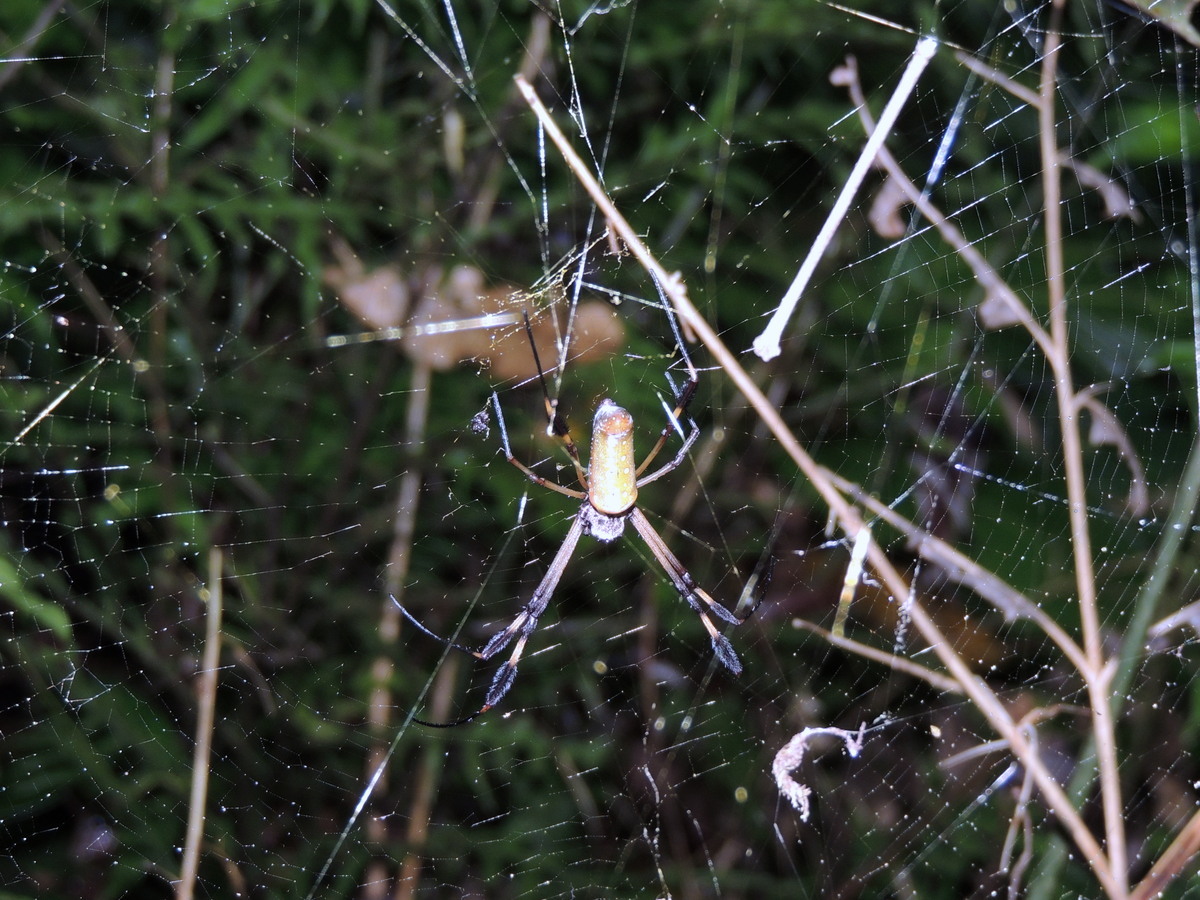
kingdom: Animalia
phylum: Arthropoda
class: Arachnida
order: Araneae
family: Araneidae
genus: Trichonephila
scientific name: Trichonephila clavipes
